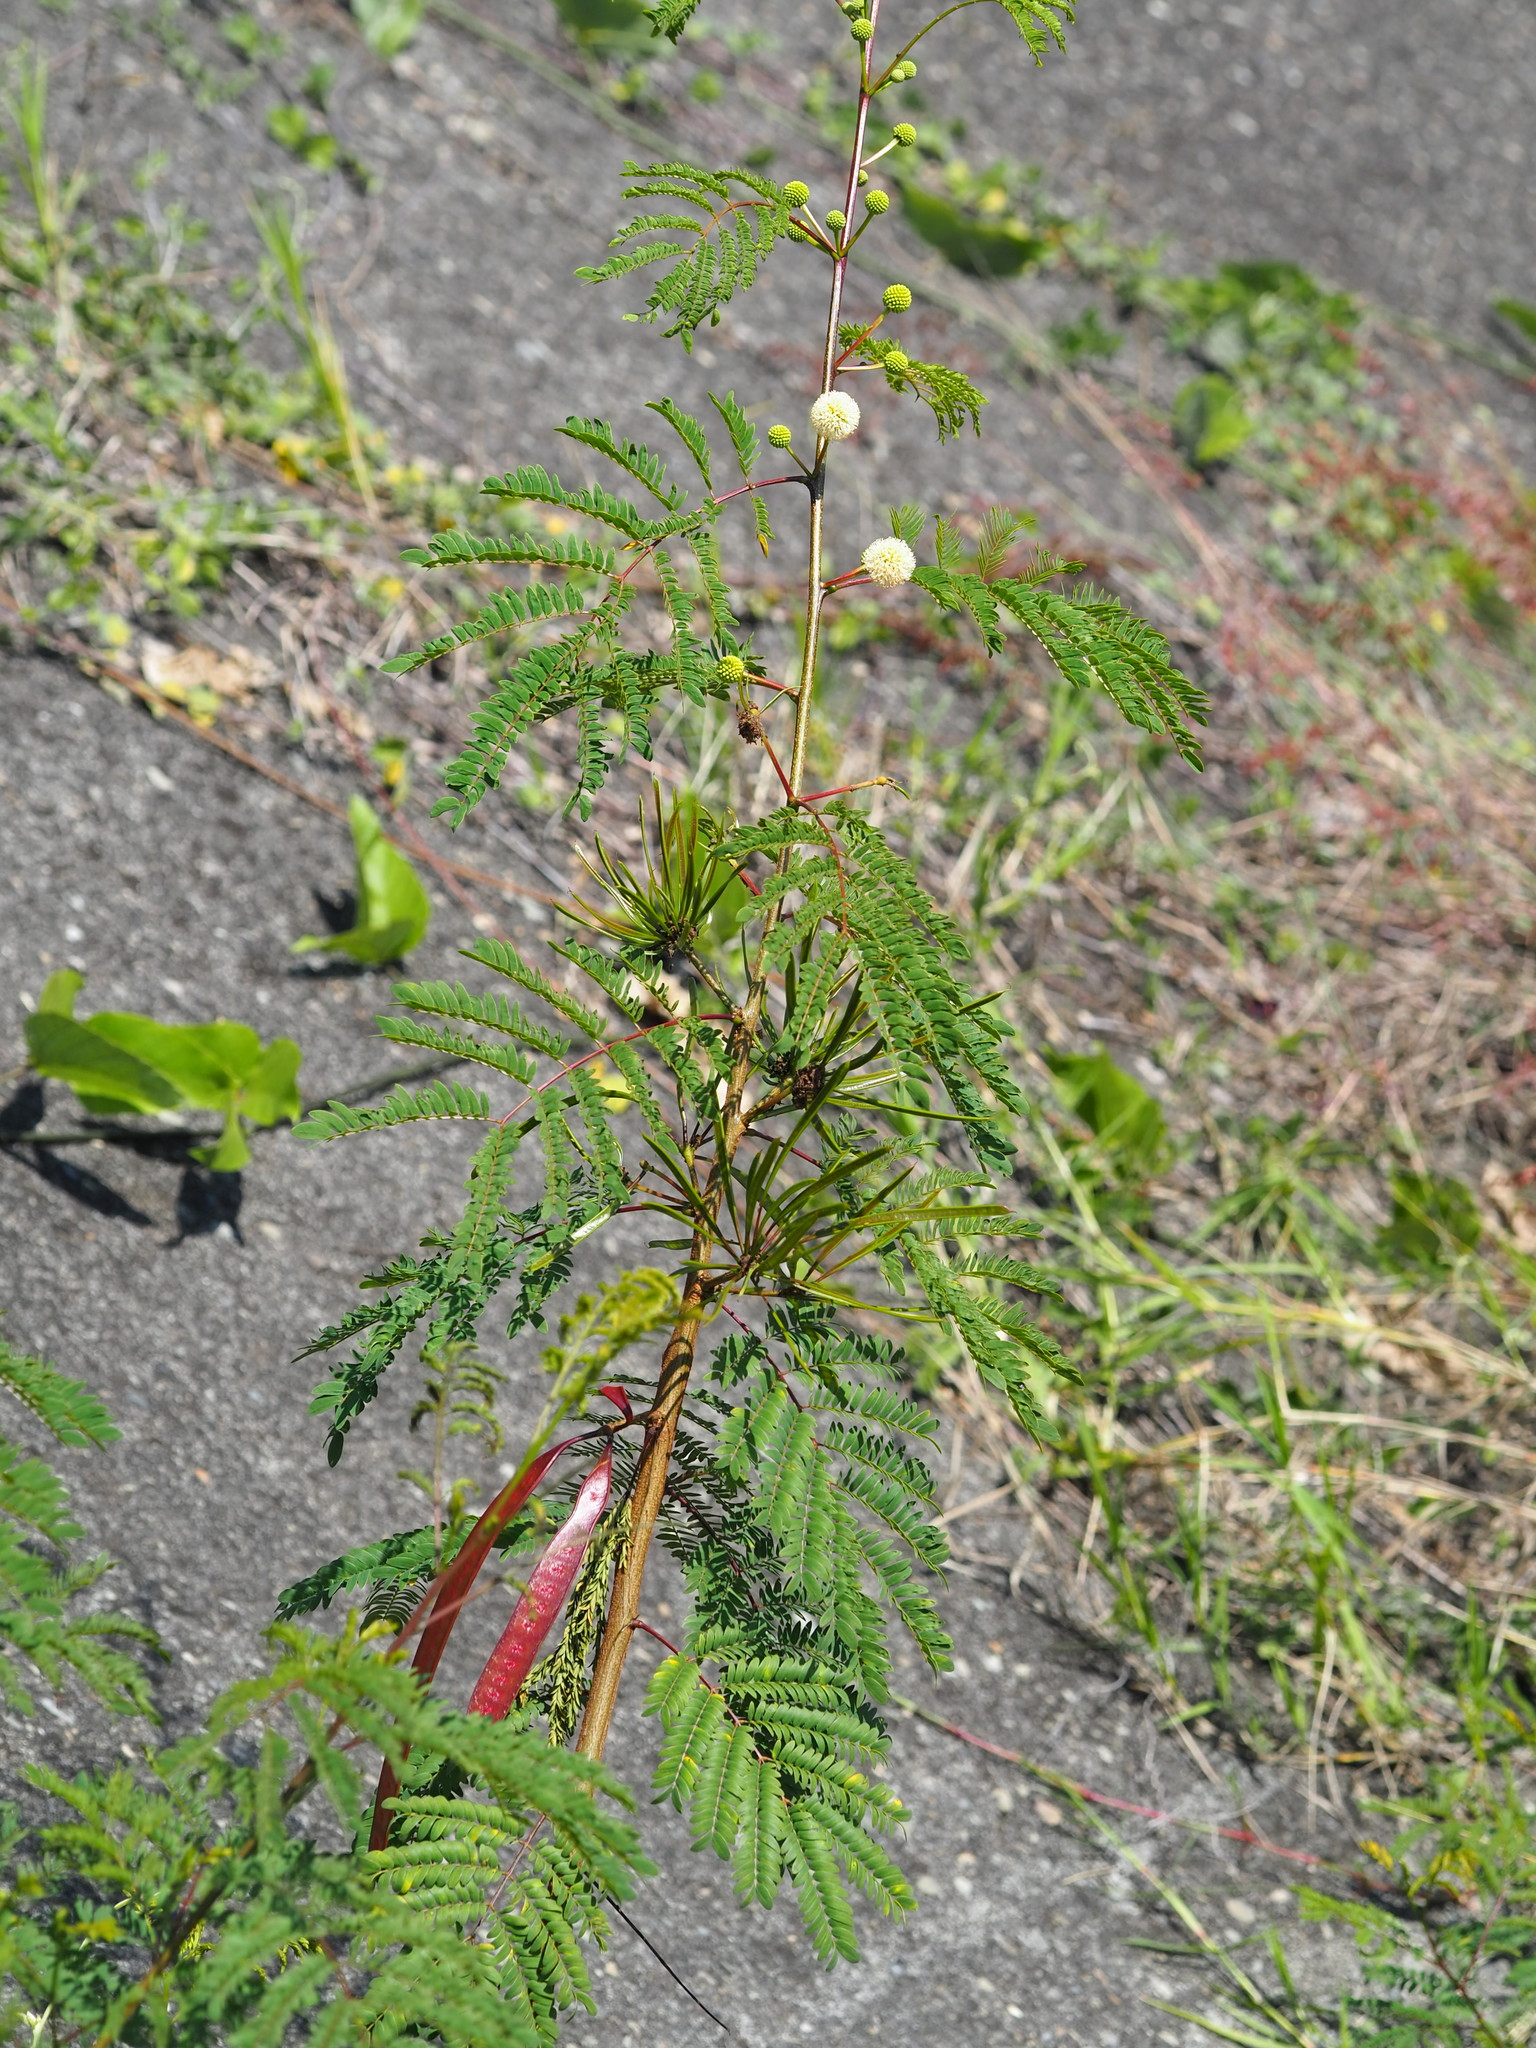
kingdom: Plantae
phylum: Tracheophyta
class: Magnoliopsida
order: Fabales
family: Fabaceae
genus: Leucaena
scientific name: Leucaena leucocephala
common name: White leadtree
